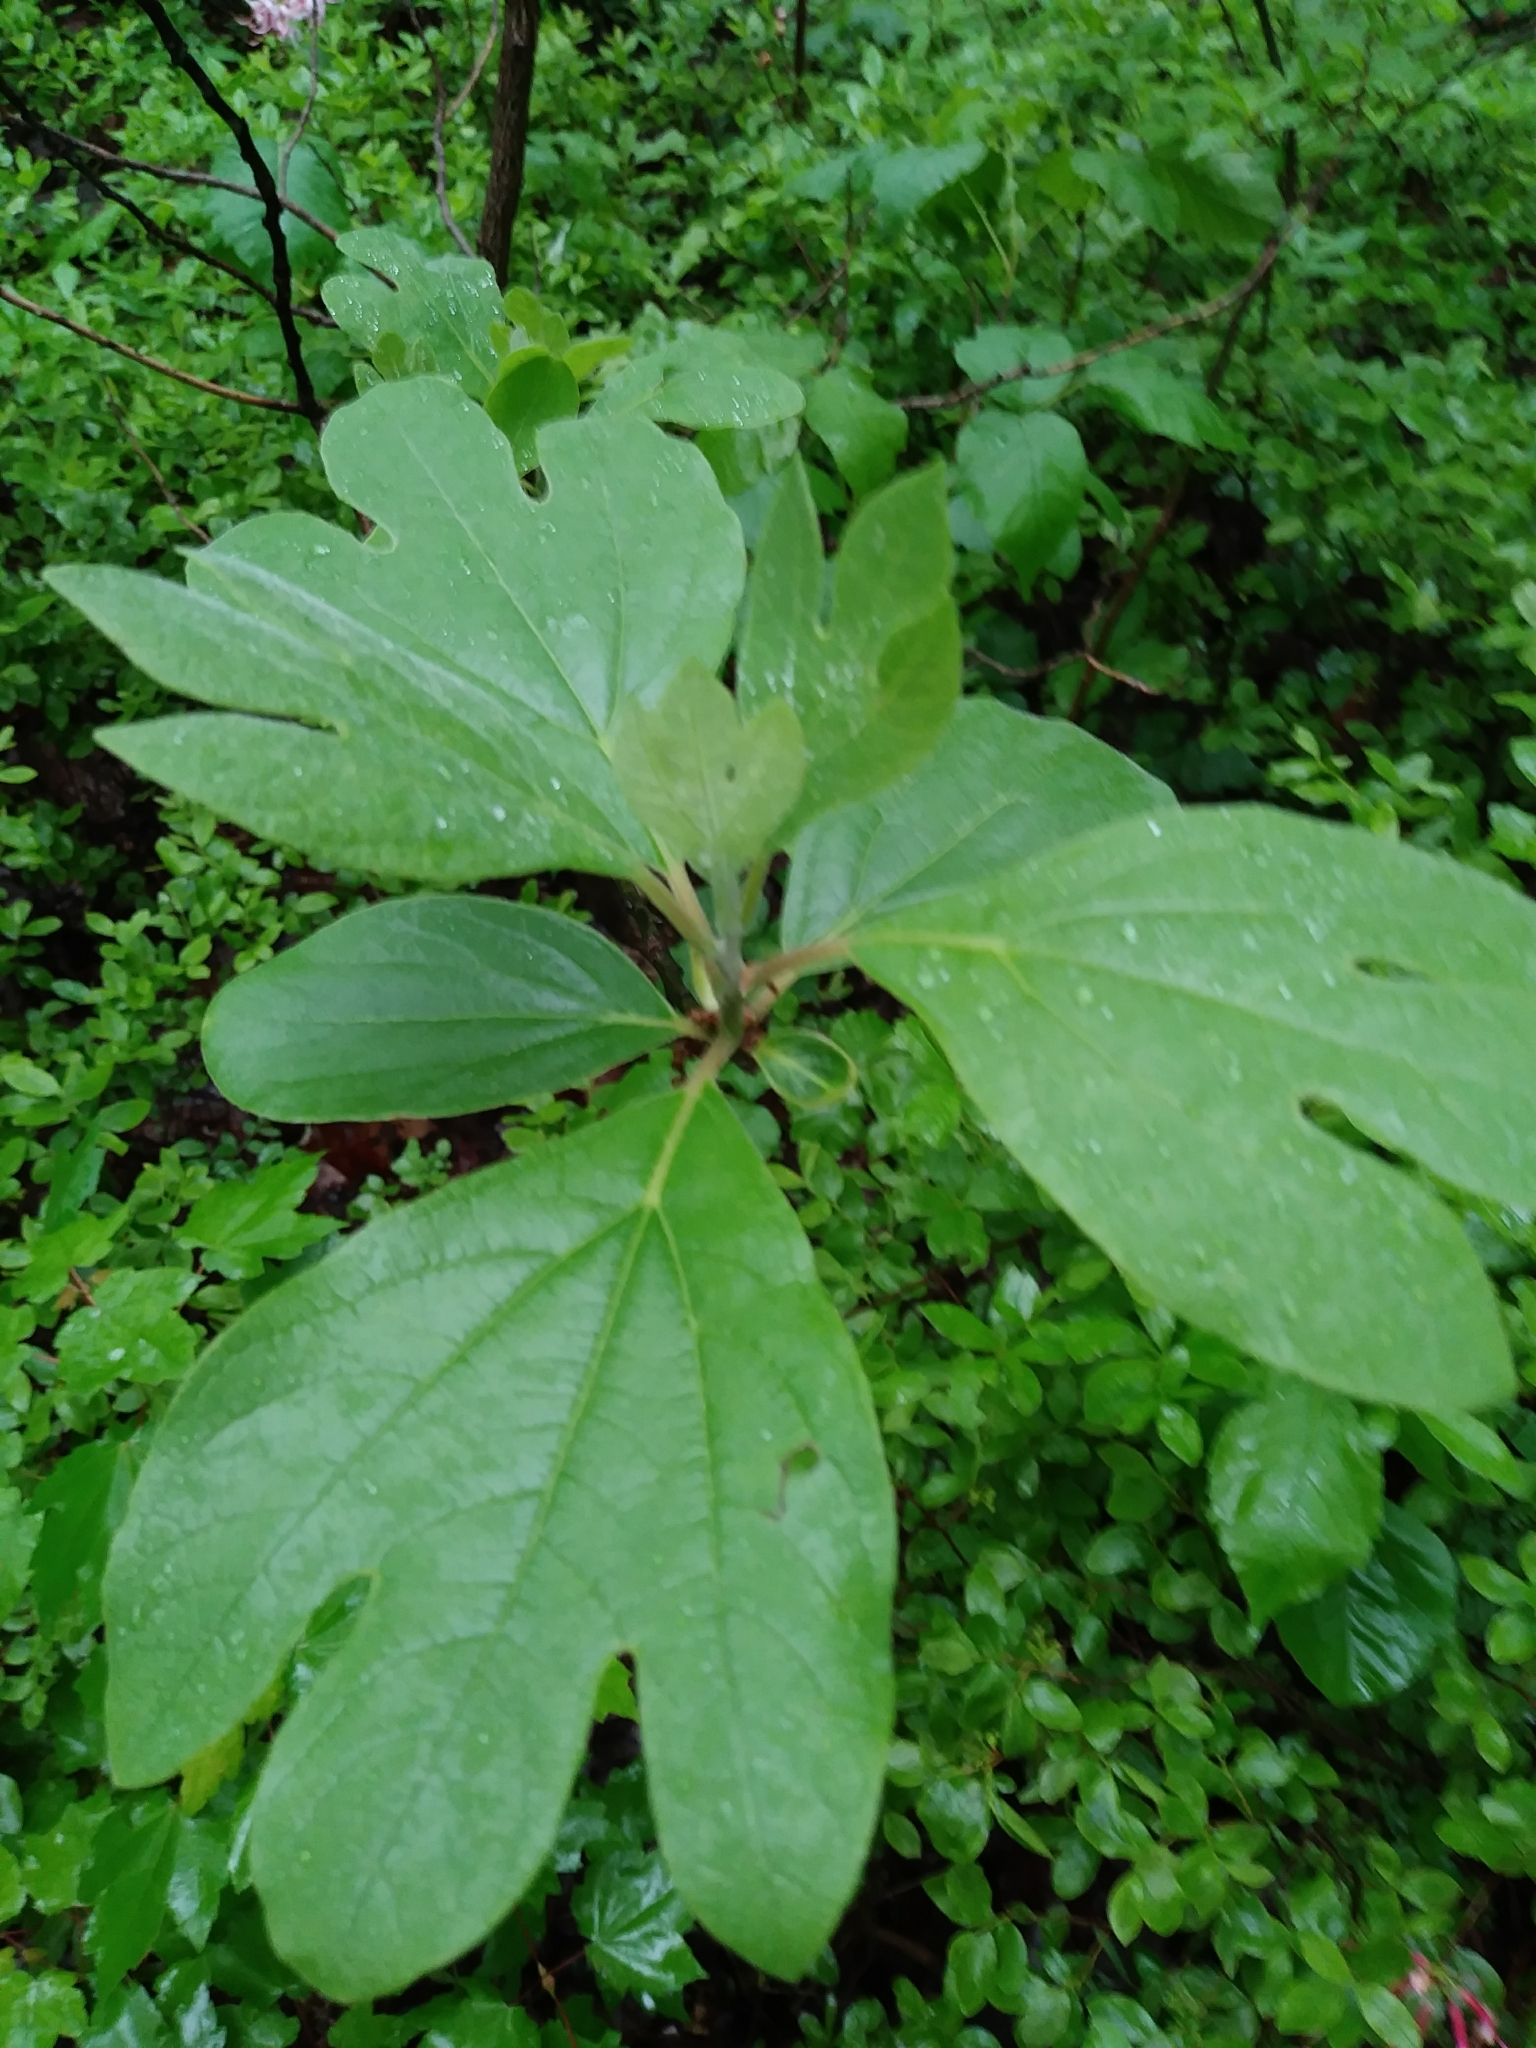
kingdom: Plantae
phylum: Tracheophyta
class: Magnoliopsida
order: Laurales
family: Lauraceae
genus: Sassafras
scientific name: Sassafras albidum
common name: Sassafras
